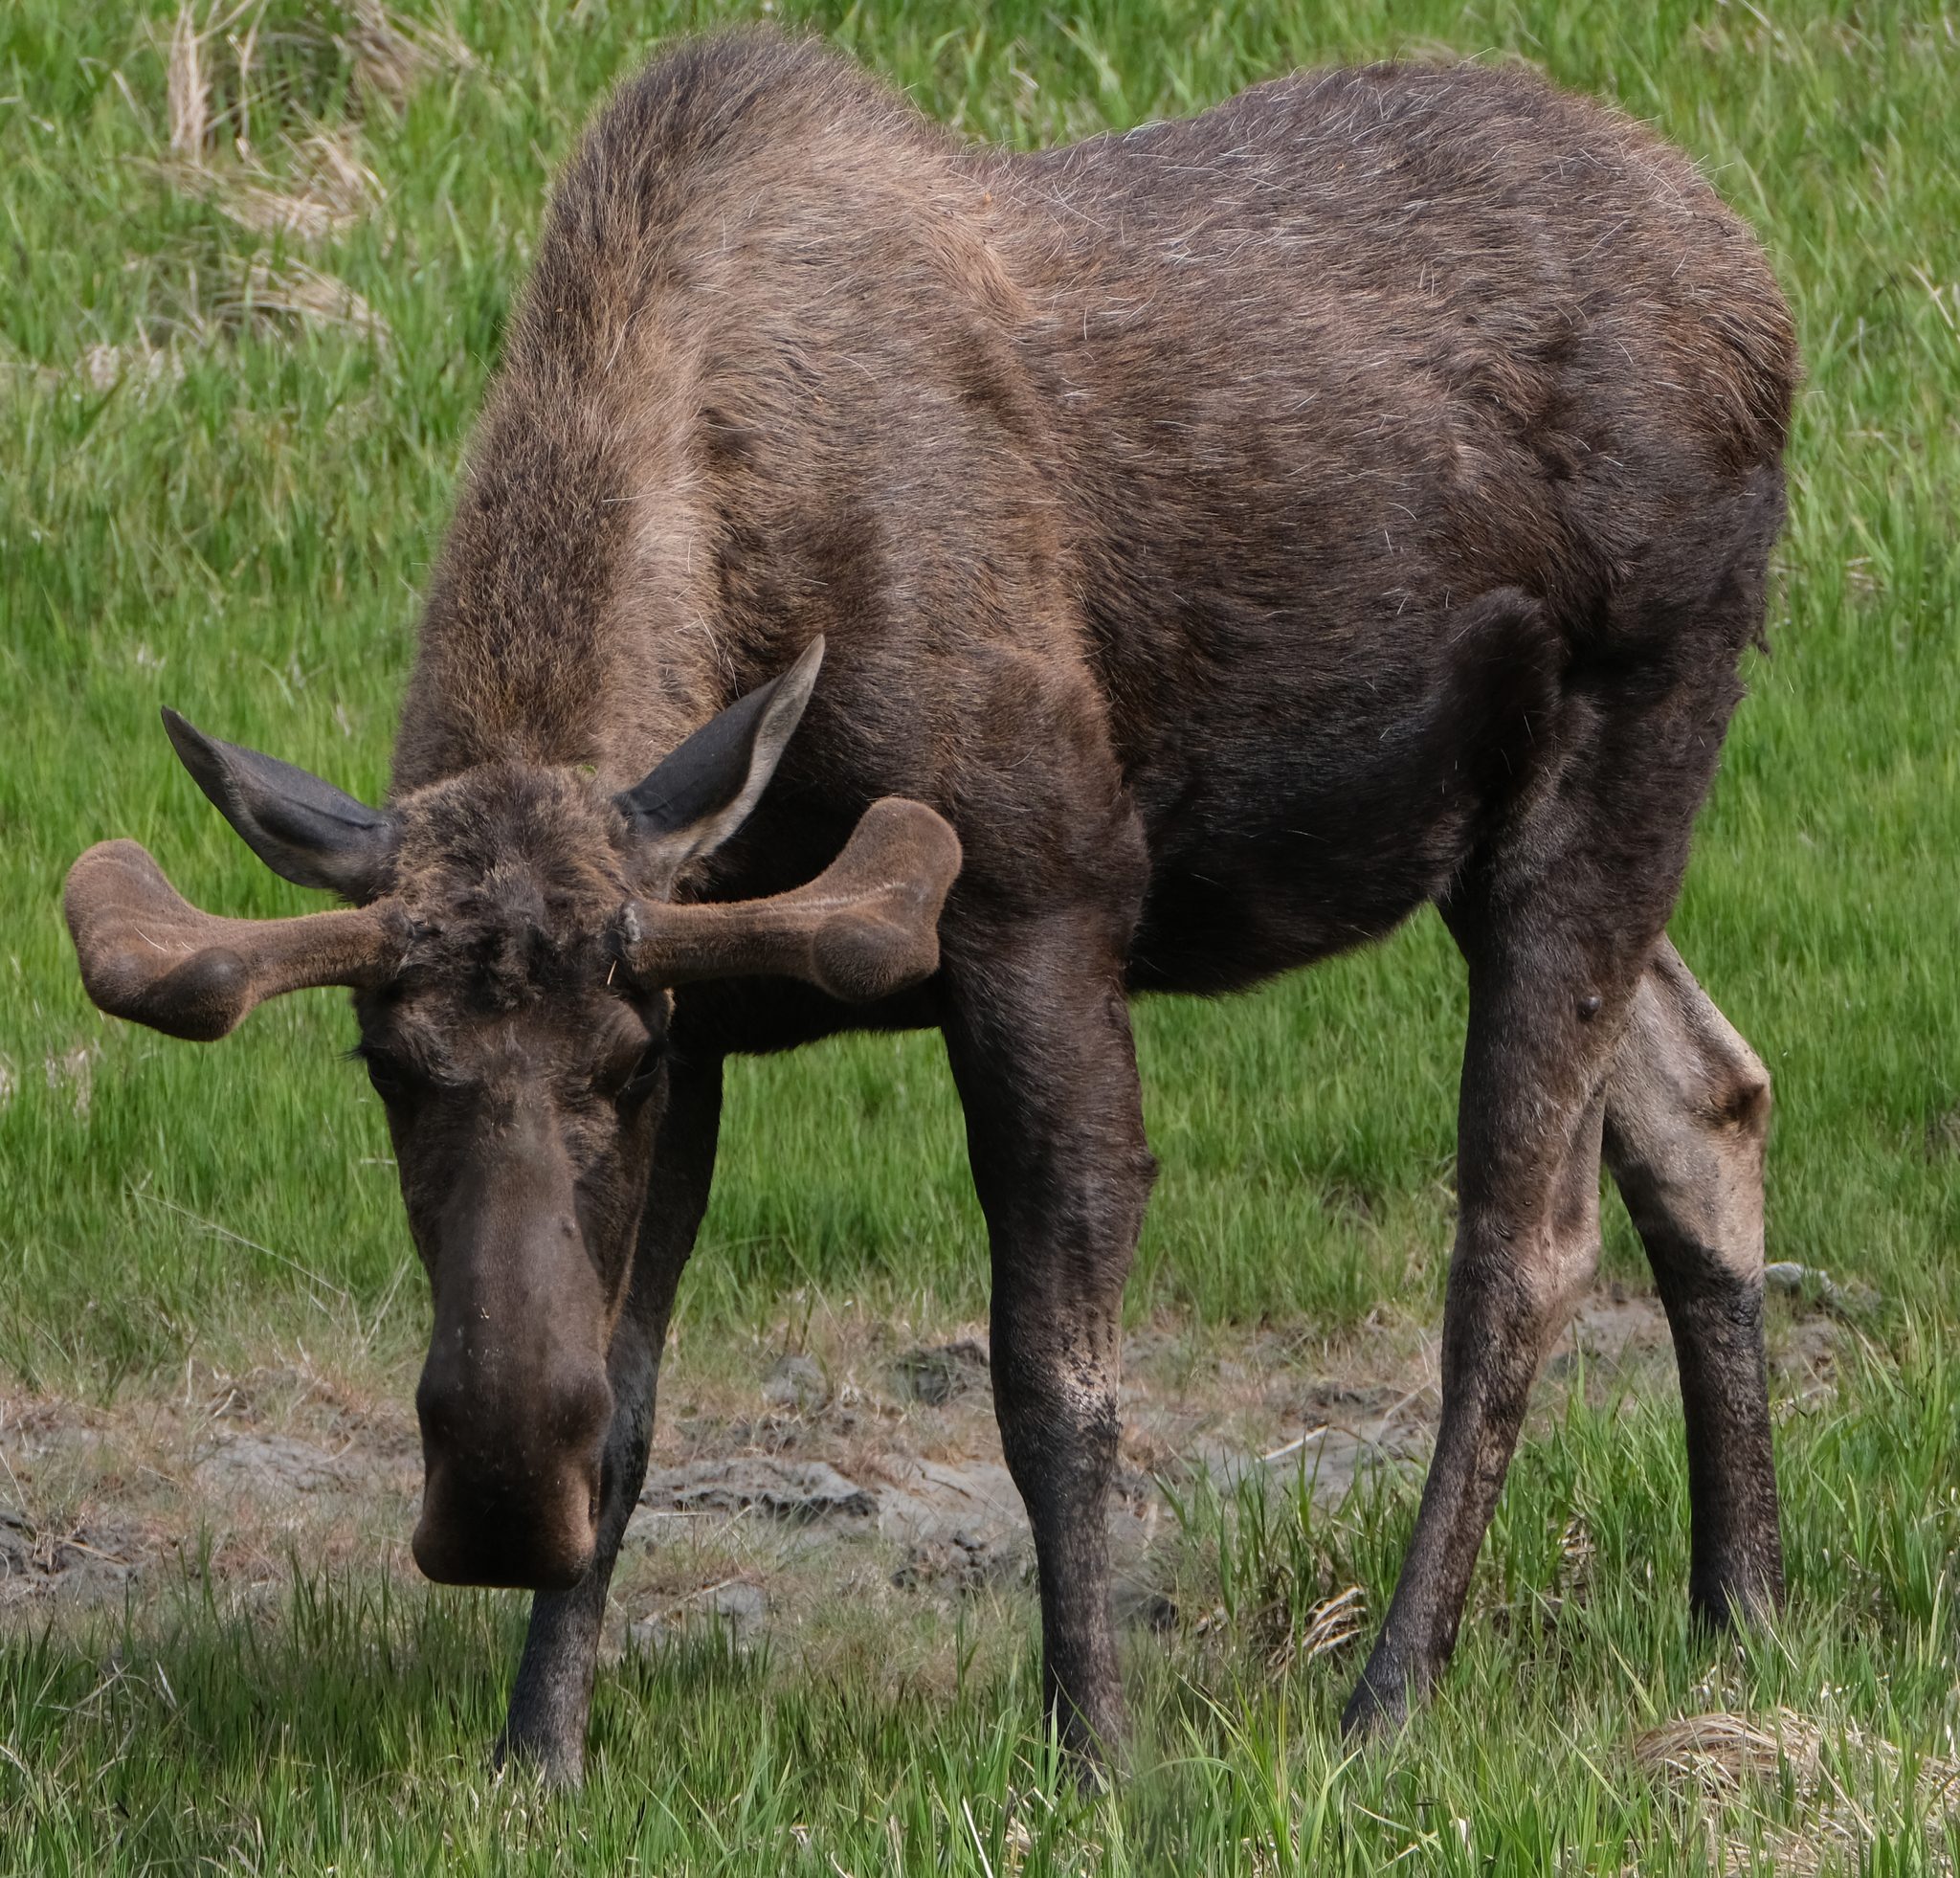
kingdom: Animalia
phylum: Chordata
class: Mammalia
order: Artiodactyla
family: Cervidae
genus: Alces
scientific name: Alces alces
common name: Moose
